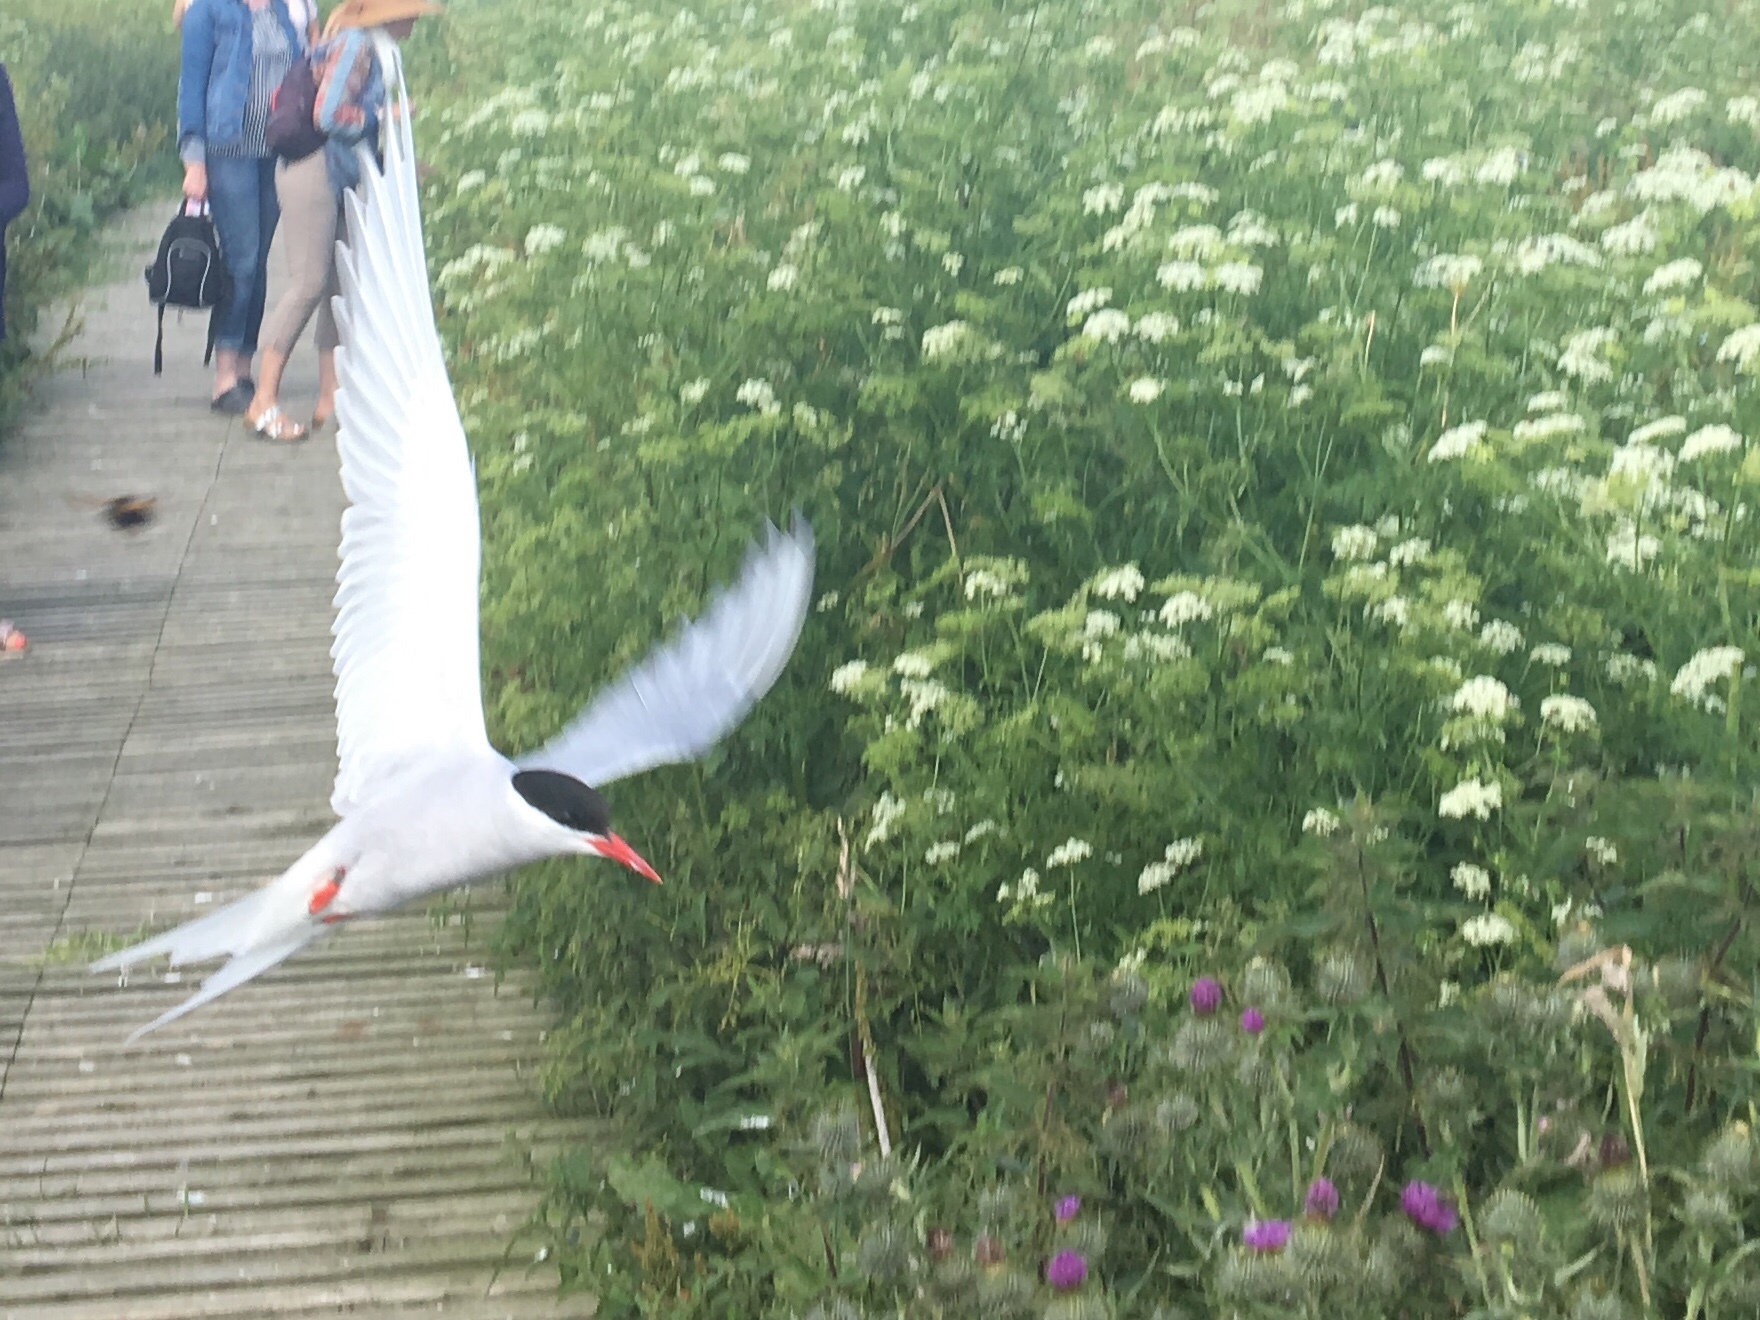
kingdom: Animalia
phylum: Chordata
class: Aves
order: Charadriiformes
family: Laridae
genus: Sterna
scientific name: Sterna paradisaea
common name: Arctic tern
